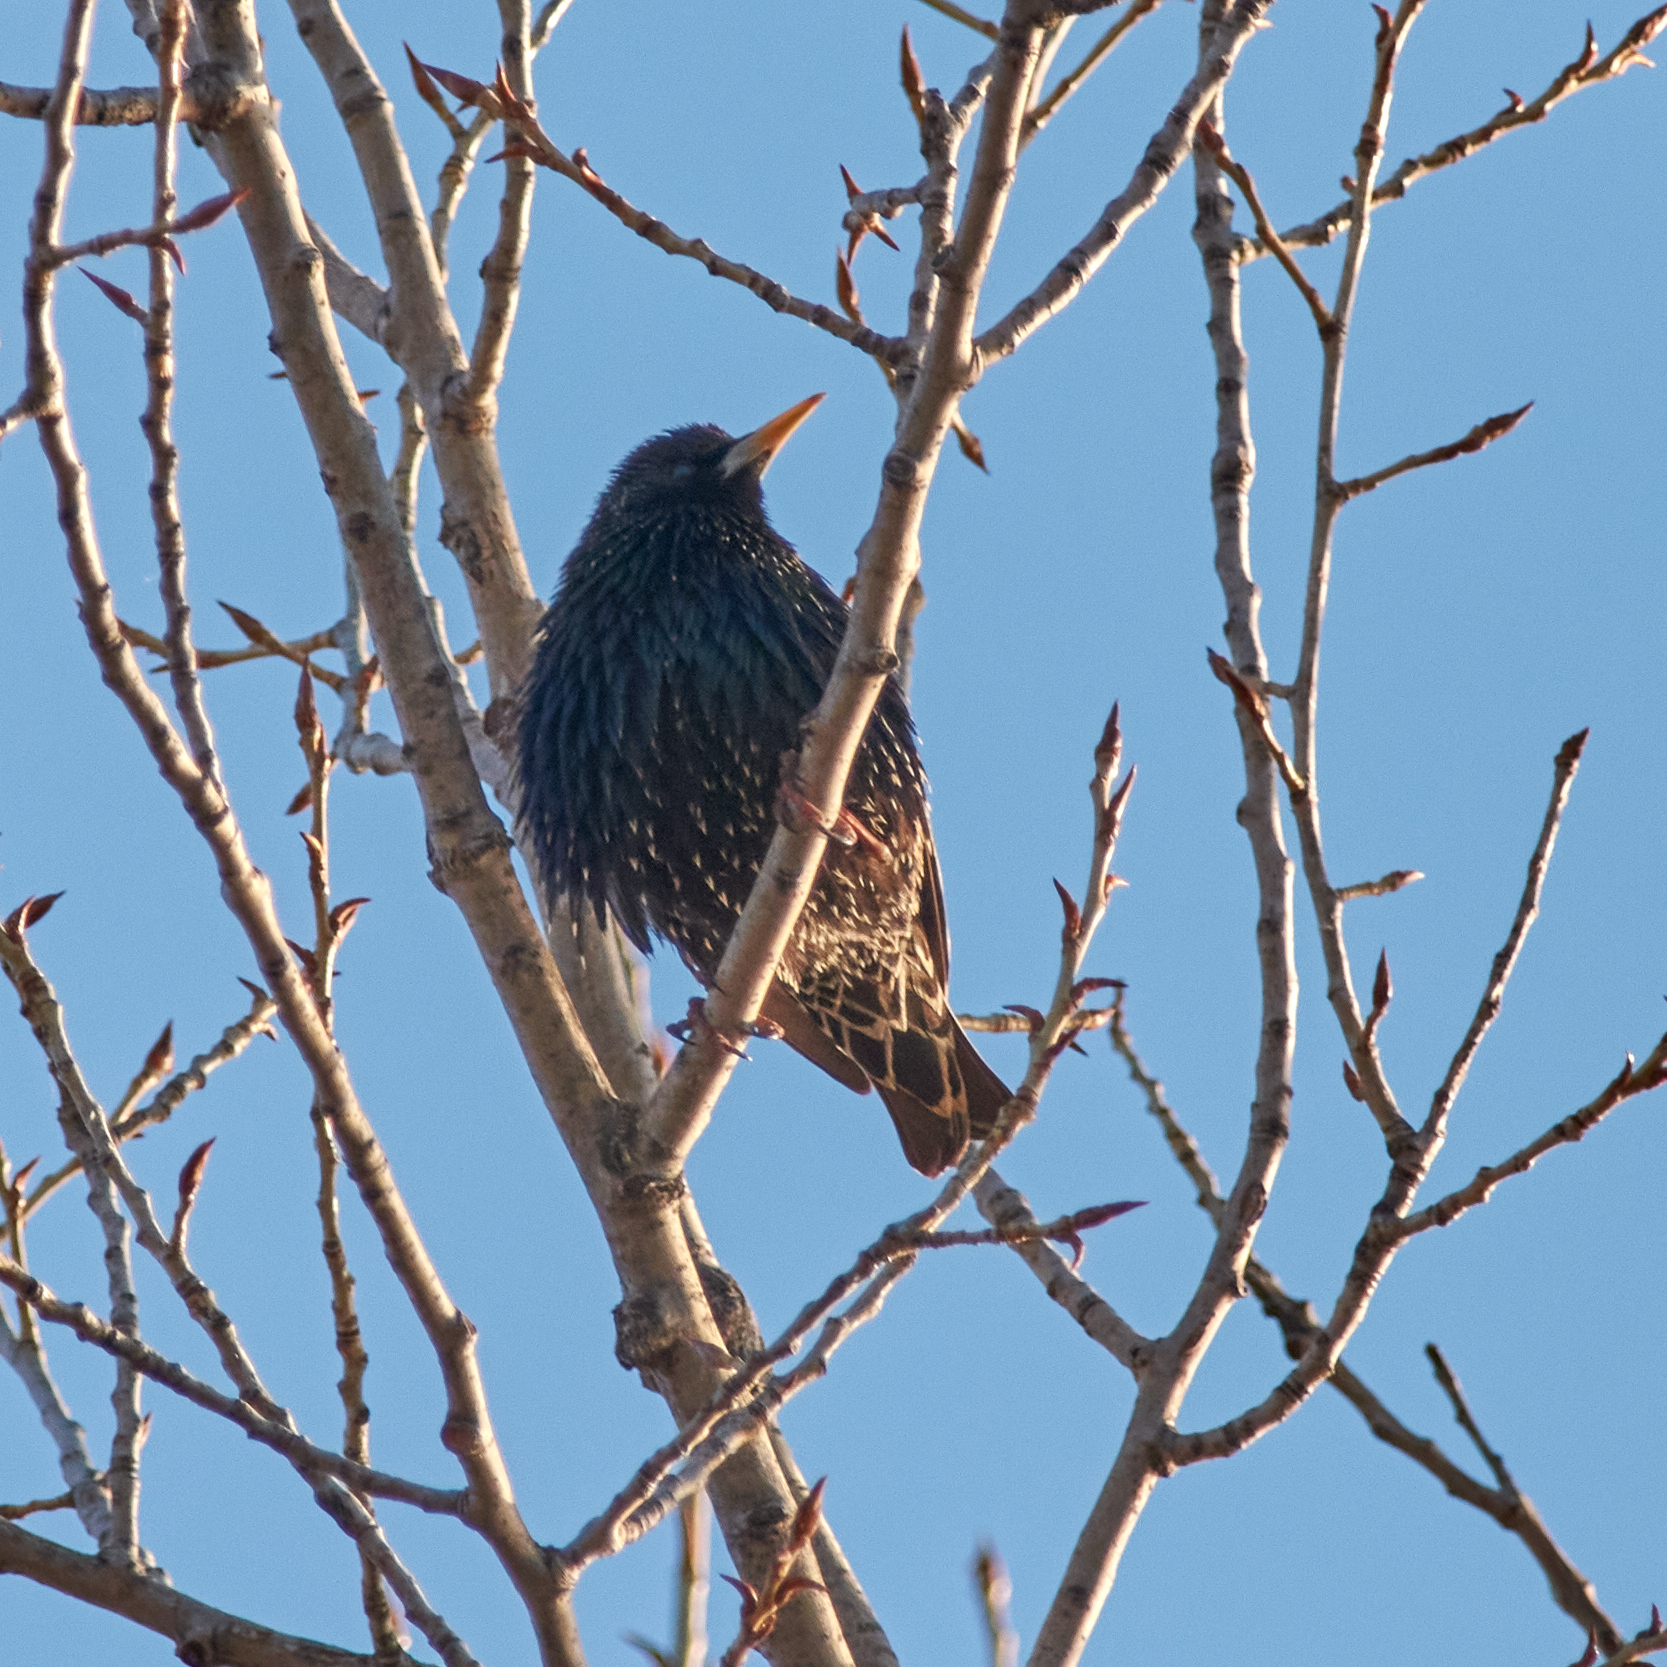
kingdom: Animalia
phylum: Chordata
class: Aves
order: Passeriformes
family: Sturnidae
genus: Sturnus
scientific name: Sturnus vulgaris
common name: Common starling
